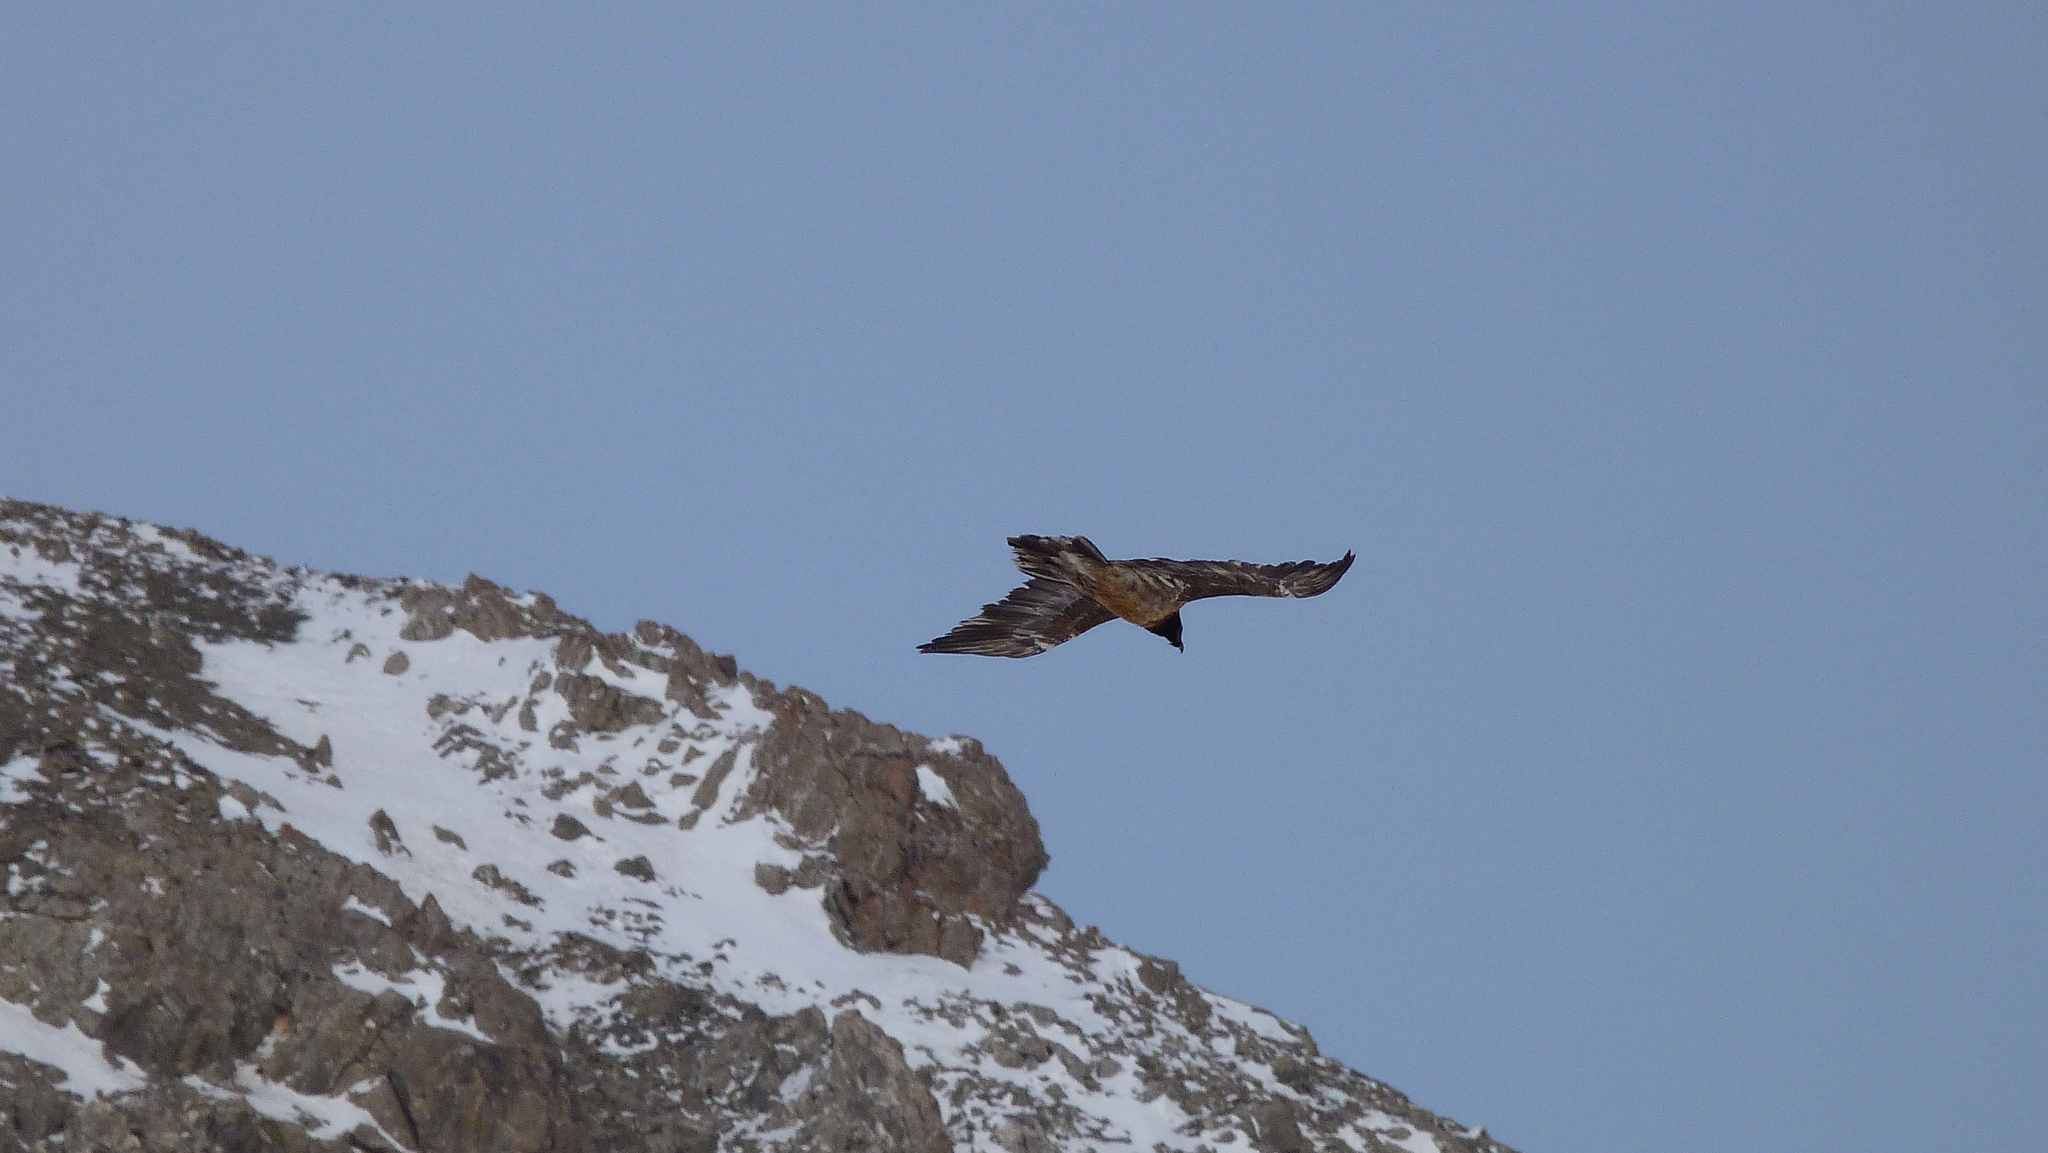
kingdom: Animalia
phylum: Chordata
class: Aves
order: Accipitriformes
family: Accipitridae
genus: Gypaetus
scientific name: Gypaetus barbatus
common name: Bearded vulture
